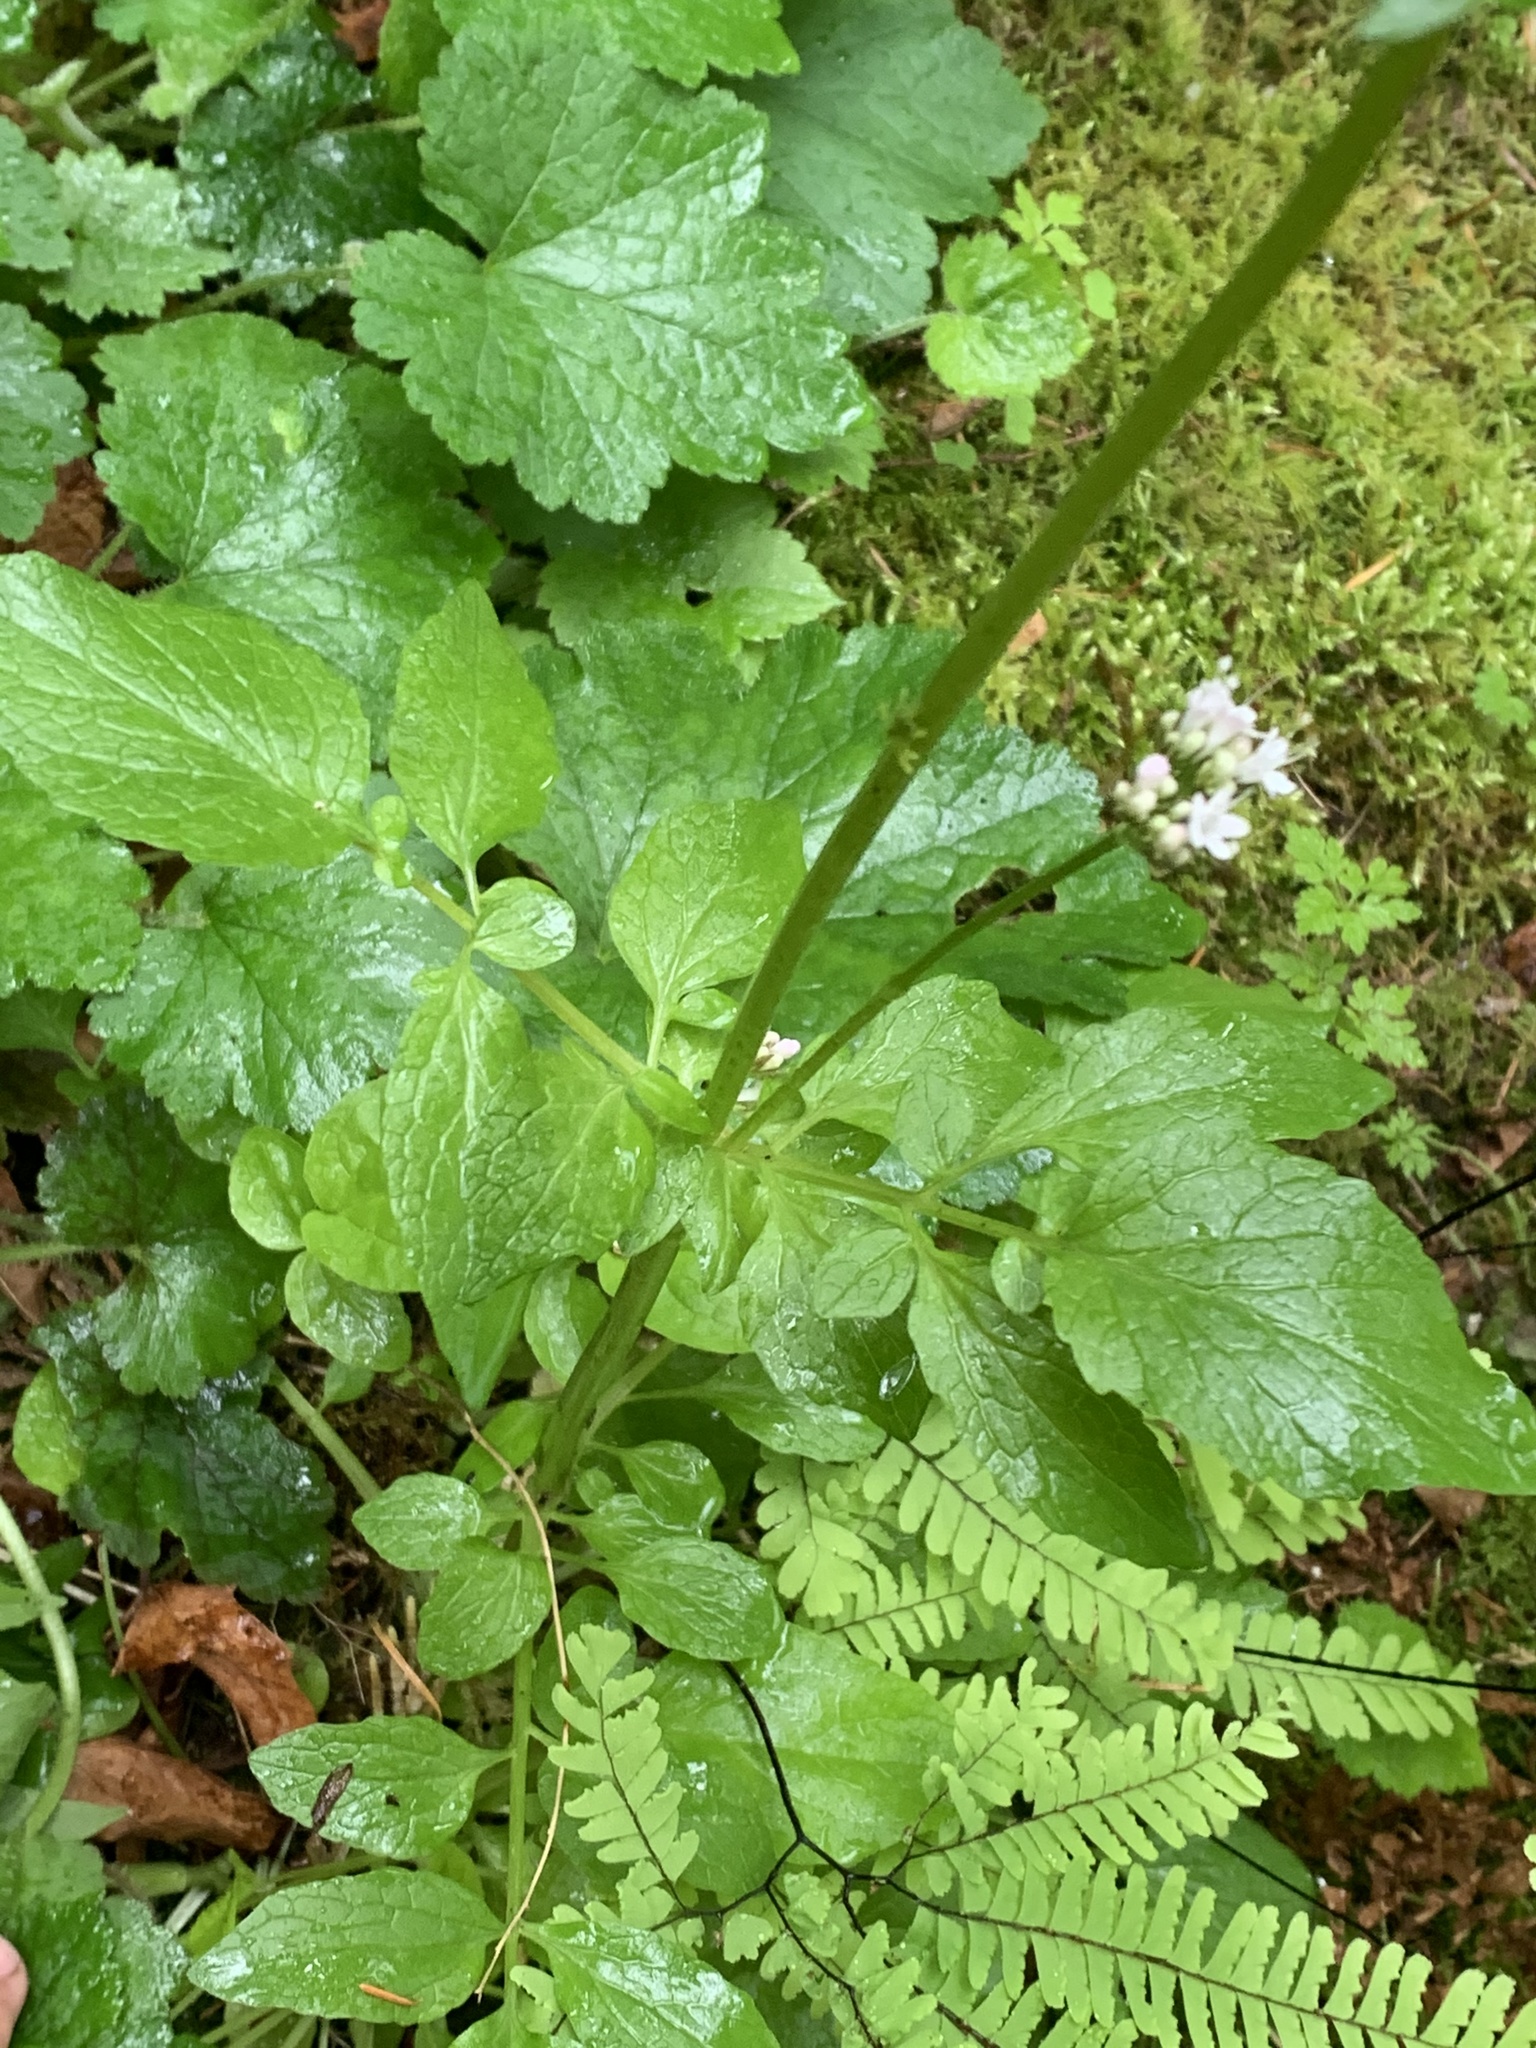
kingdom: Plantae
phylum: Tracheophyta
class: Magnoliopsida
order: Dipsacales
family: Caprifoliaceae
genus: Valeriana
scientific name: Valeriana scouleri
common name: Scouler's valerian
